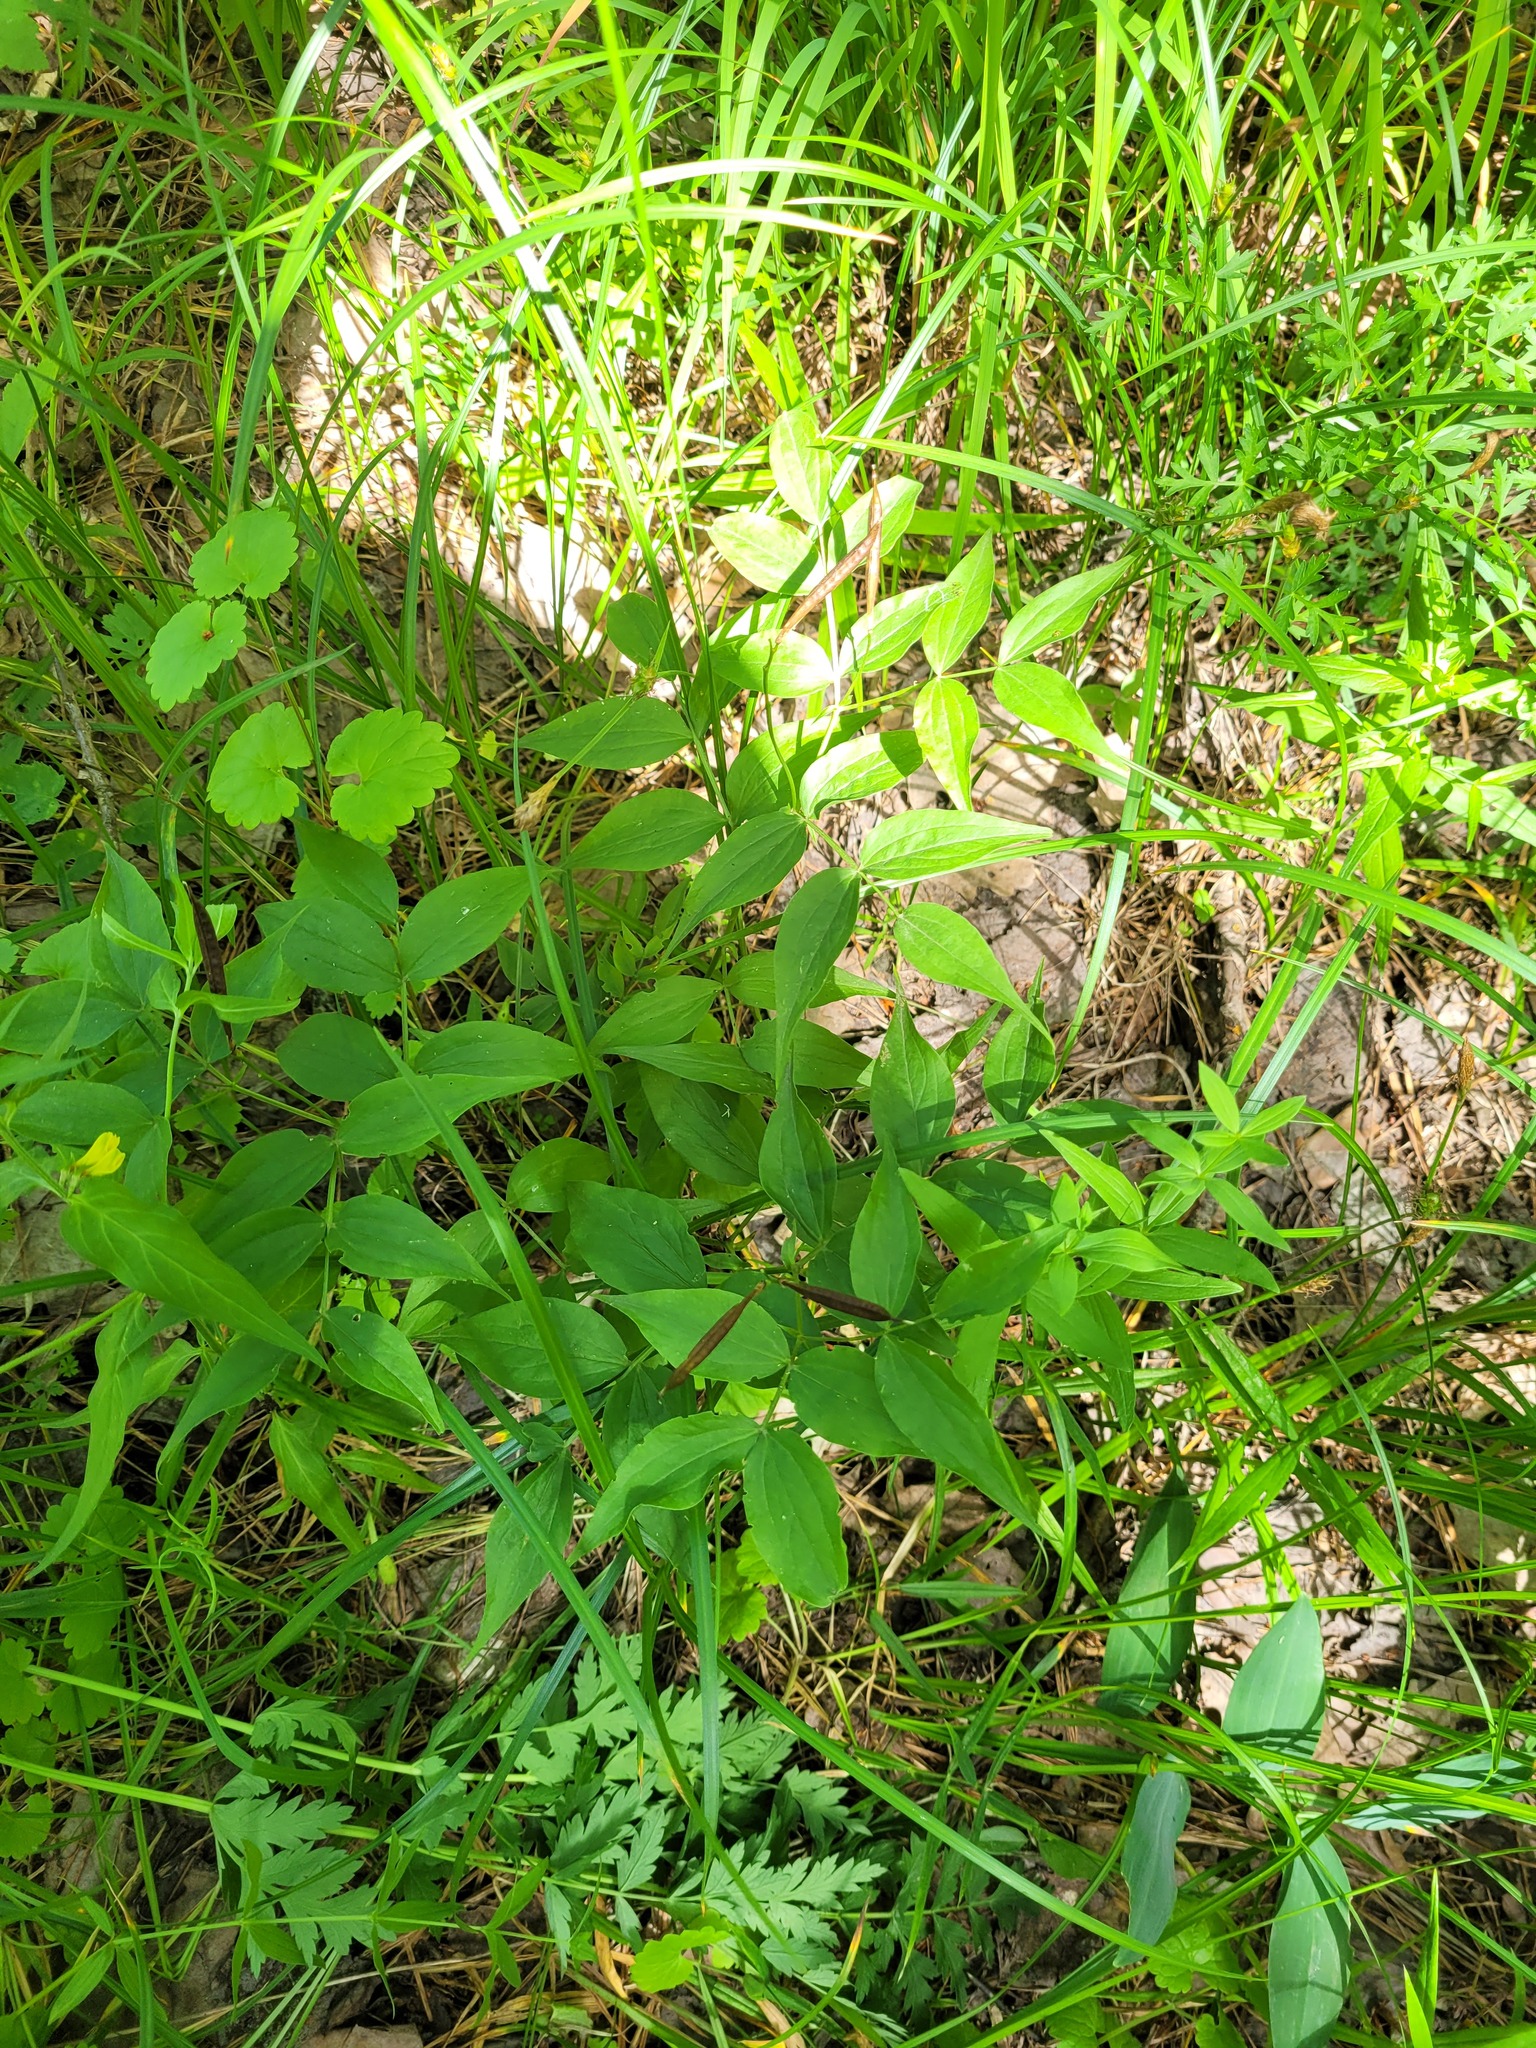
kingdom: Plantae
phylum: Tracheophyta
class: Magnoliopsida
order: Fabales
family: Fabaceae
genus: Lathyrus
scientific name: Lathyrus vernus
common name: Spring pea
